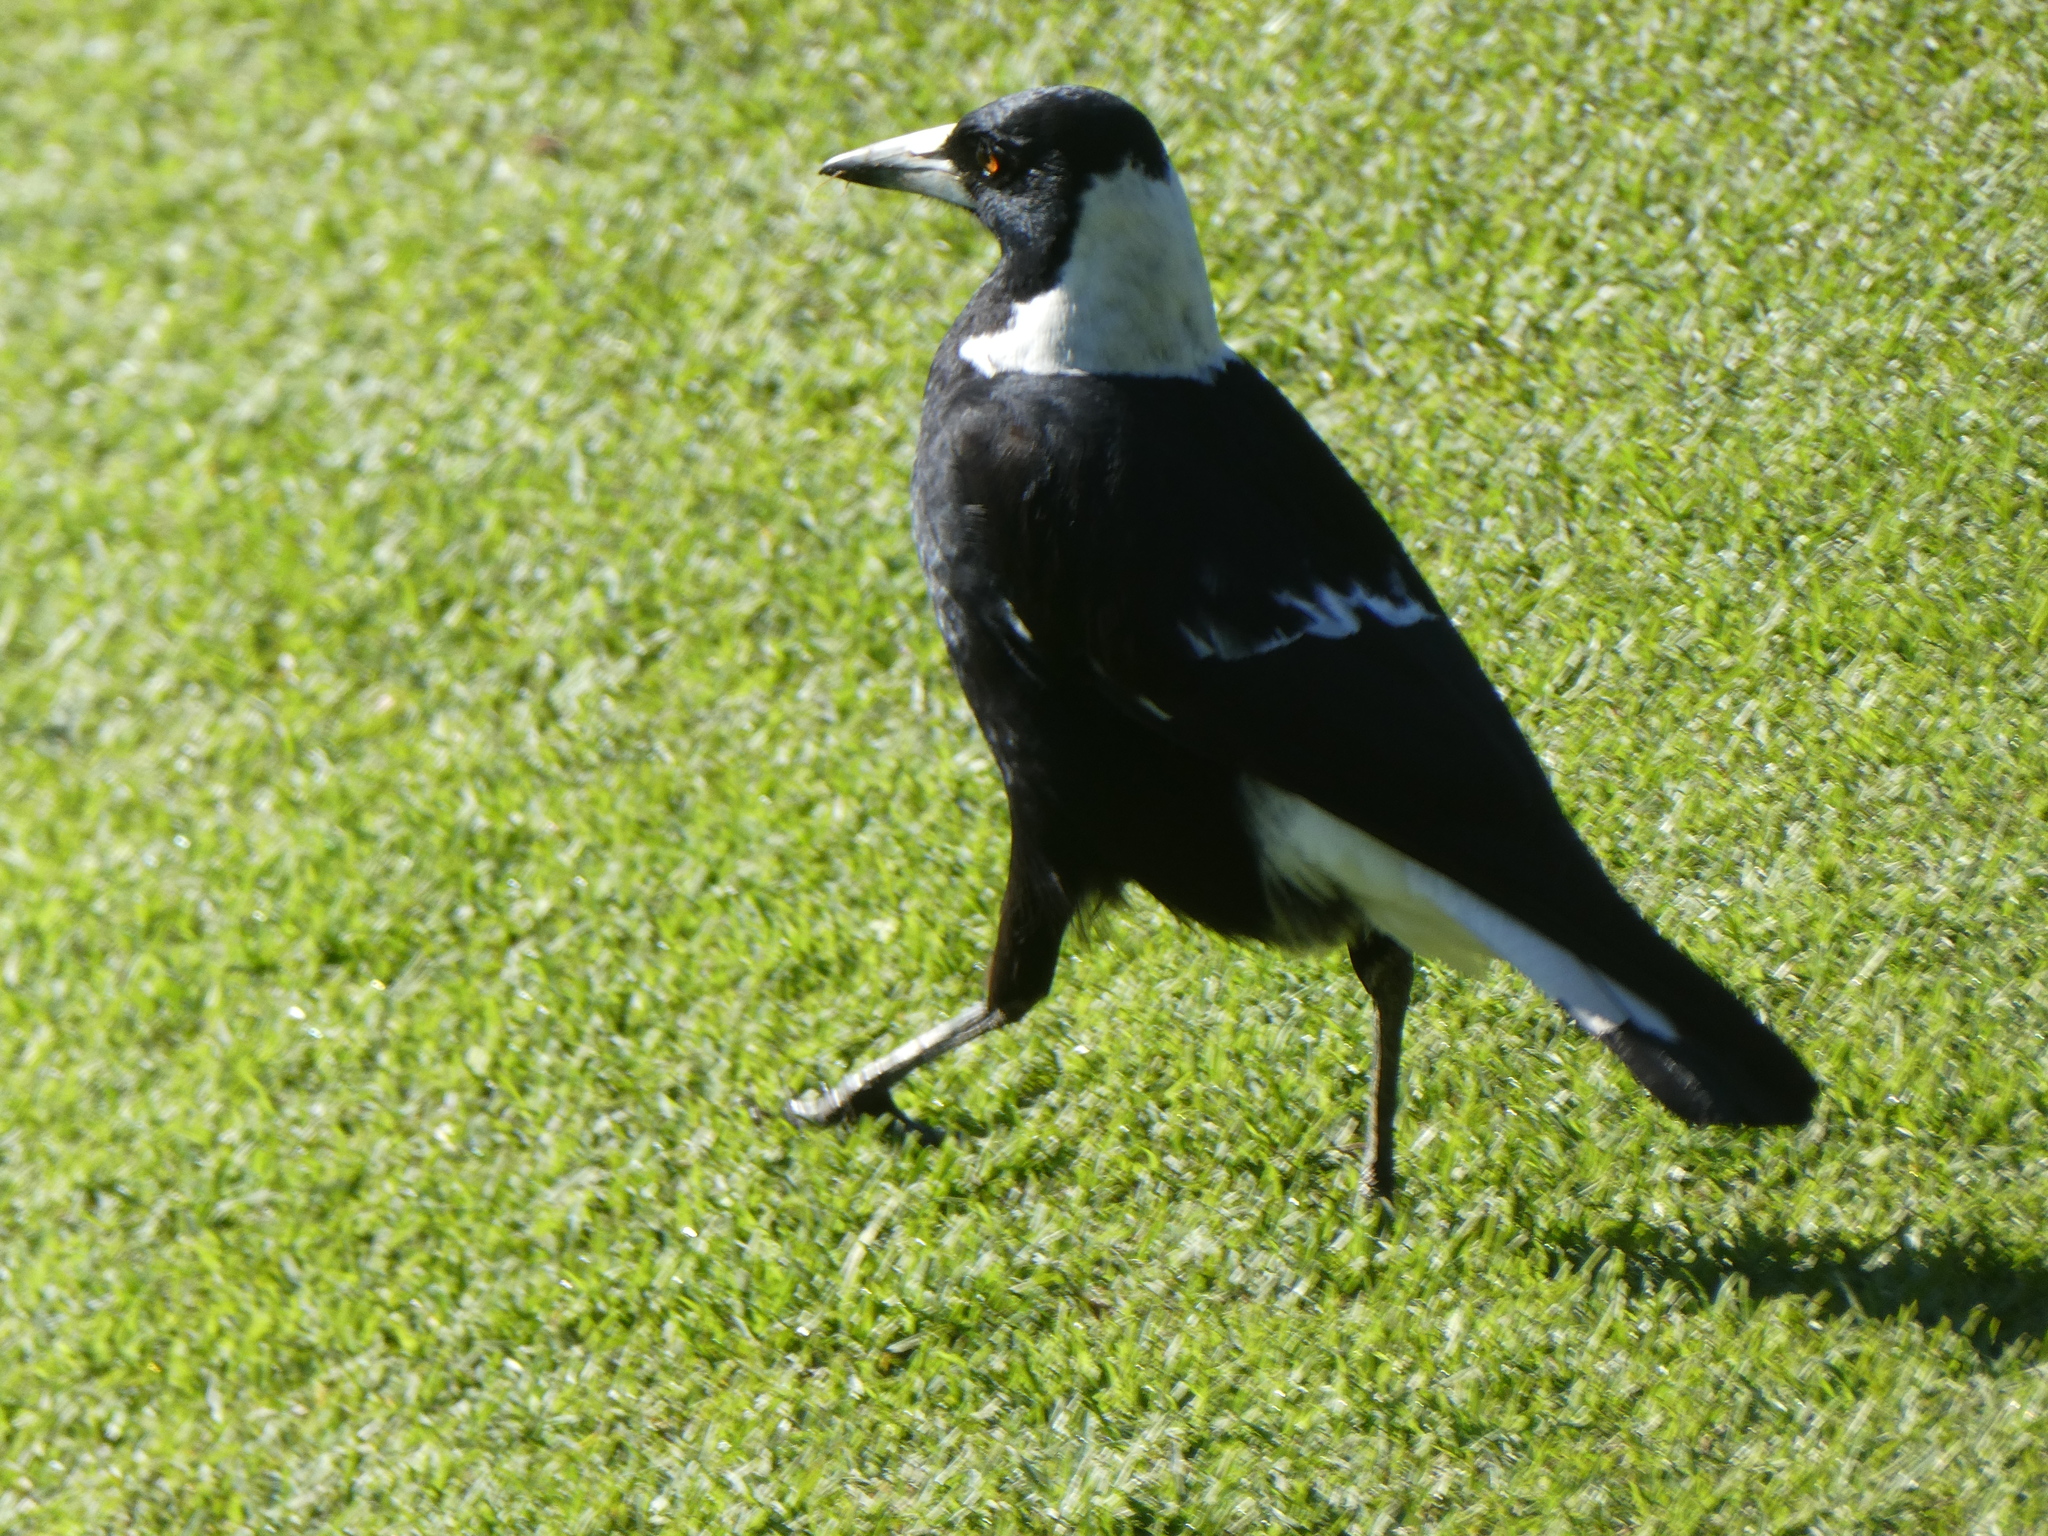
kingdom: Animalia
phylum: Chordata
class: Aves
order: Passeriformes
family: Cracticidae
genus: Gymnorhina
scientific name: Gymnorhina tibicen
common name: Australian magpie
